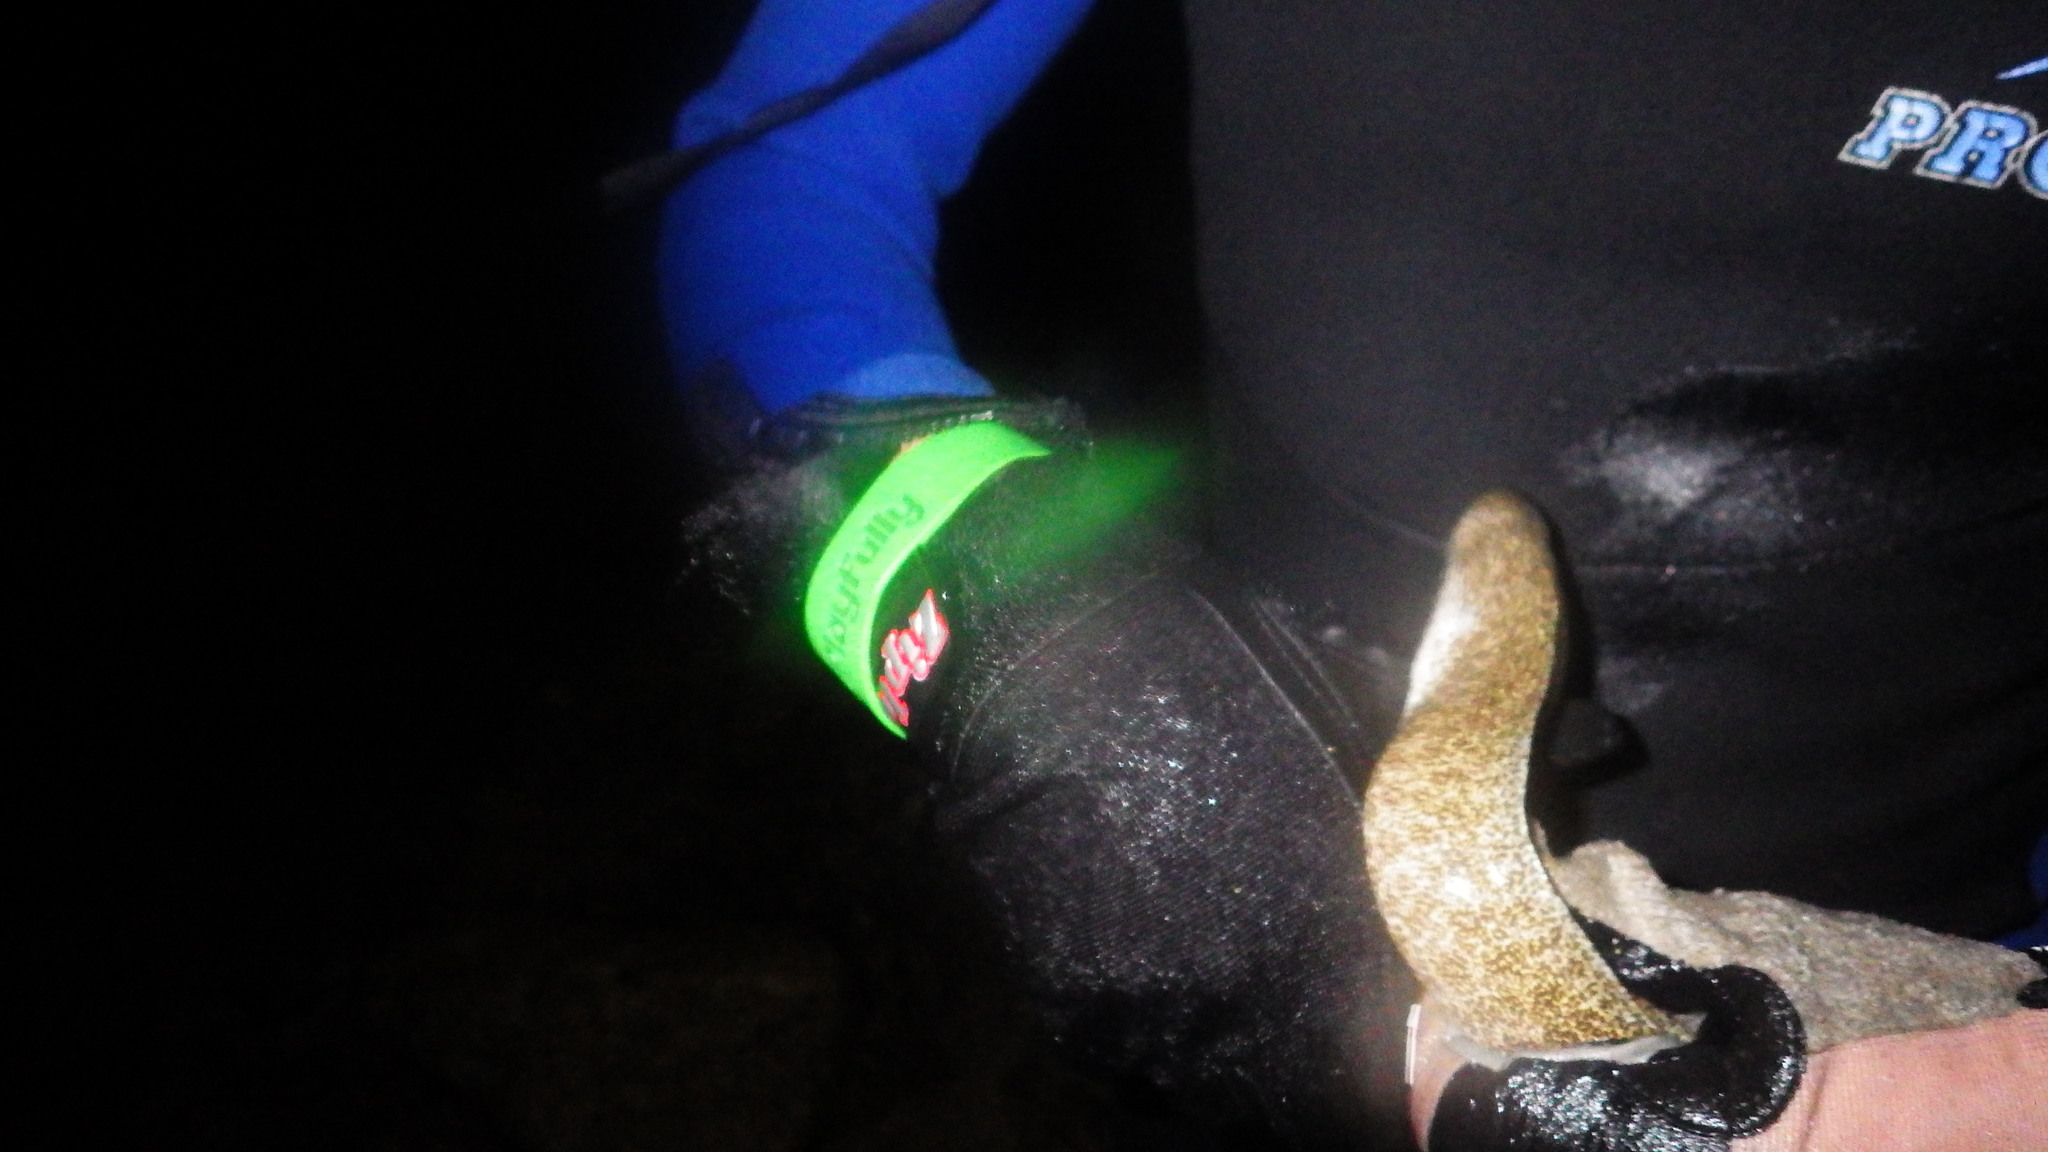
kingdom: Animalia
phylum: Chordata
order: Anguilliformes
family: Muraenidae
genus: Gymnothorax
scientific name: Gymnothorax pictus
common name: Peppered moray
